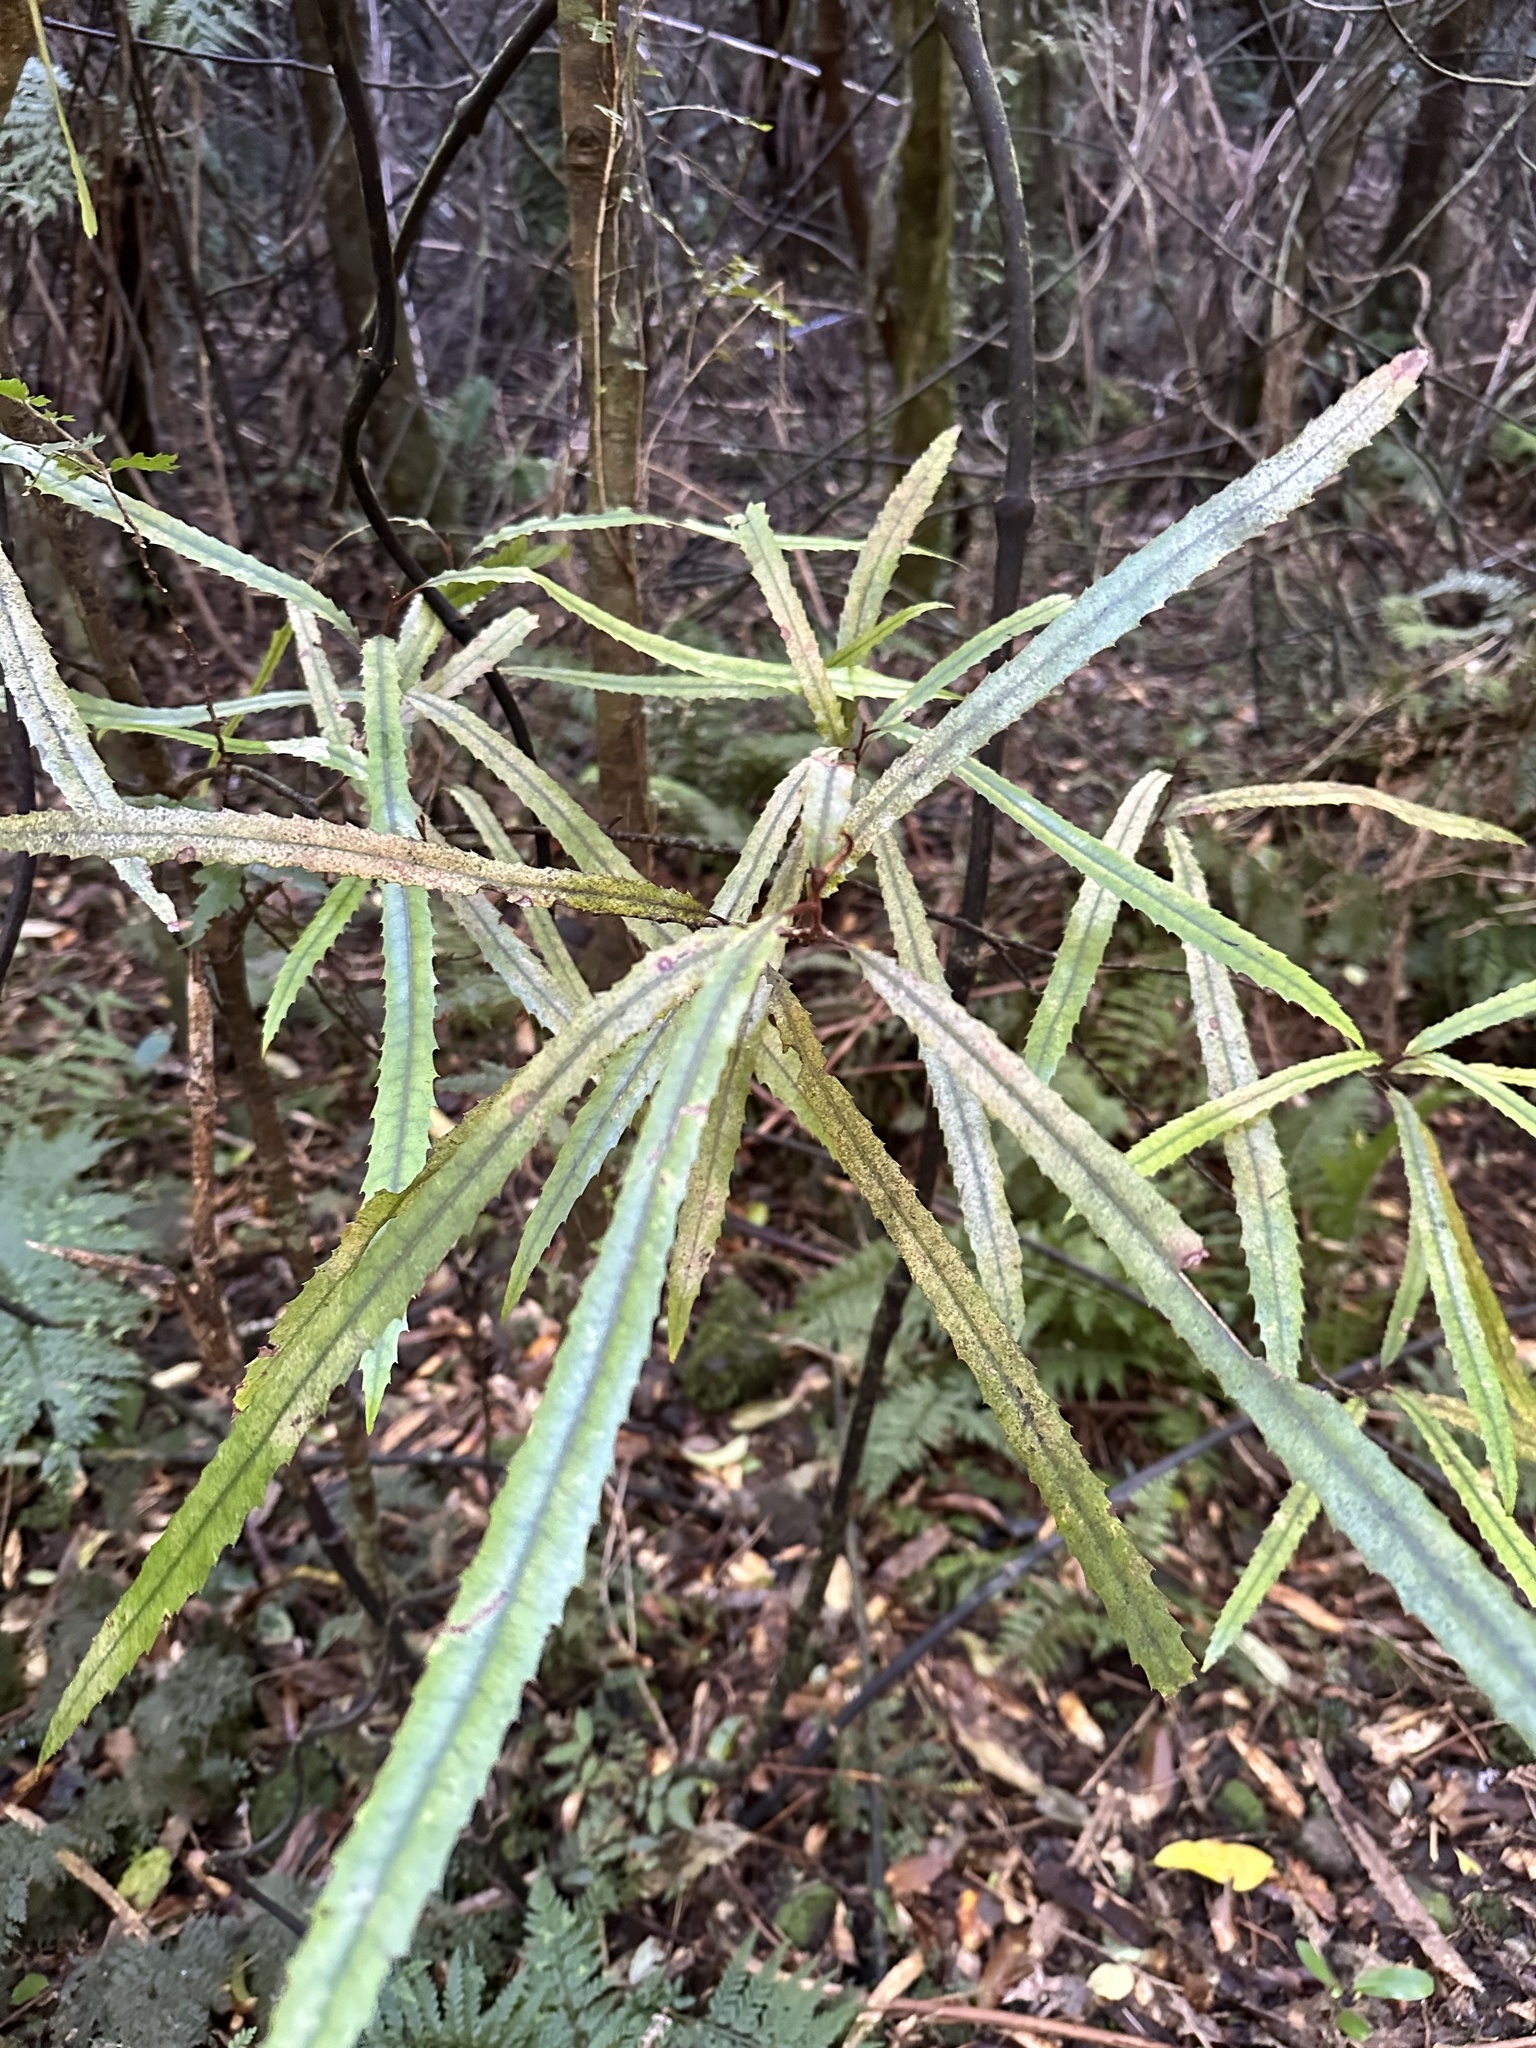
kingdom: Plantae
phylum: Tracheophyta
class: Magnoliopsida
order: Proteales
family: Proteaceae
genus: Knightia
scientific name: Knightia excelsa
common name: New zealand-honeysuckle
